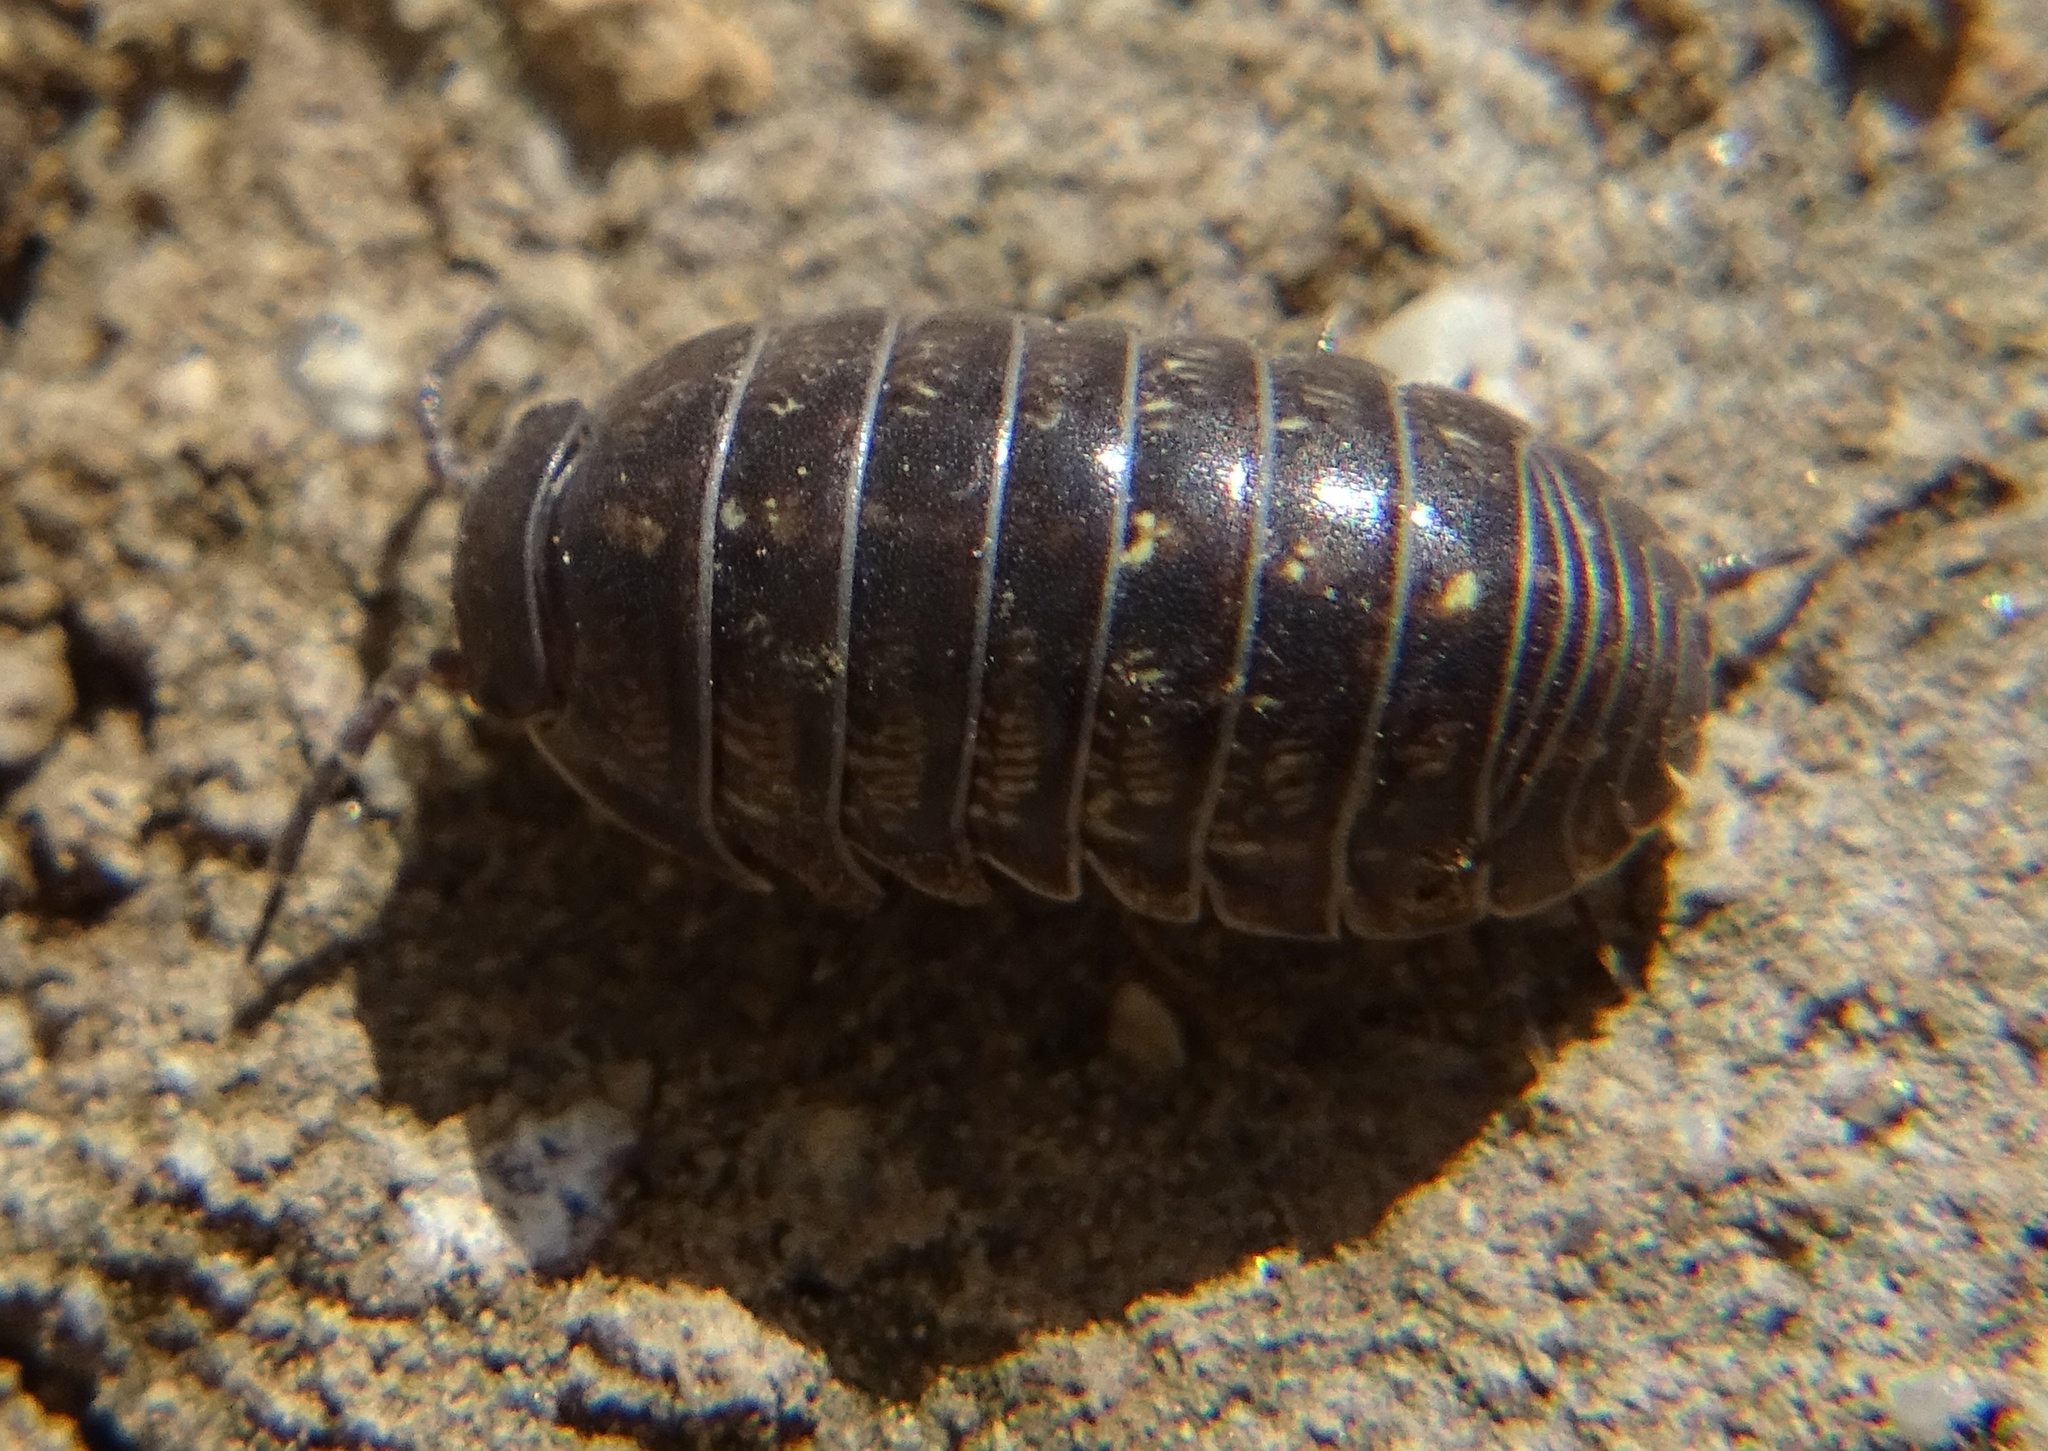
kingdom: Animalia
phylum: Arthropoda
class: Malacostraca
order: Isopoda
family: Armadillidiidae
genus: Armadillidium
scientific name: Armadillidium vulgare
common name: Common pill woodlouse
